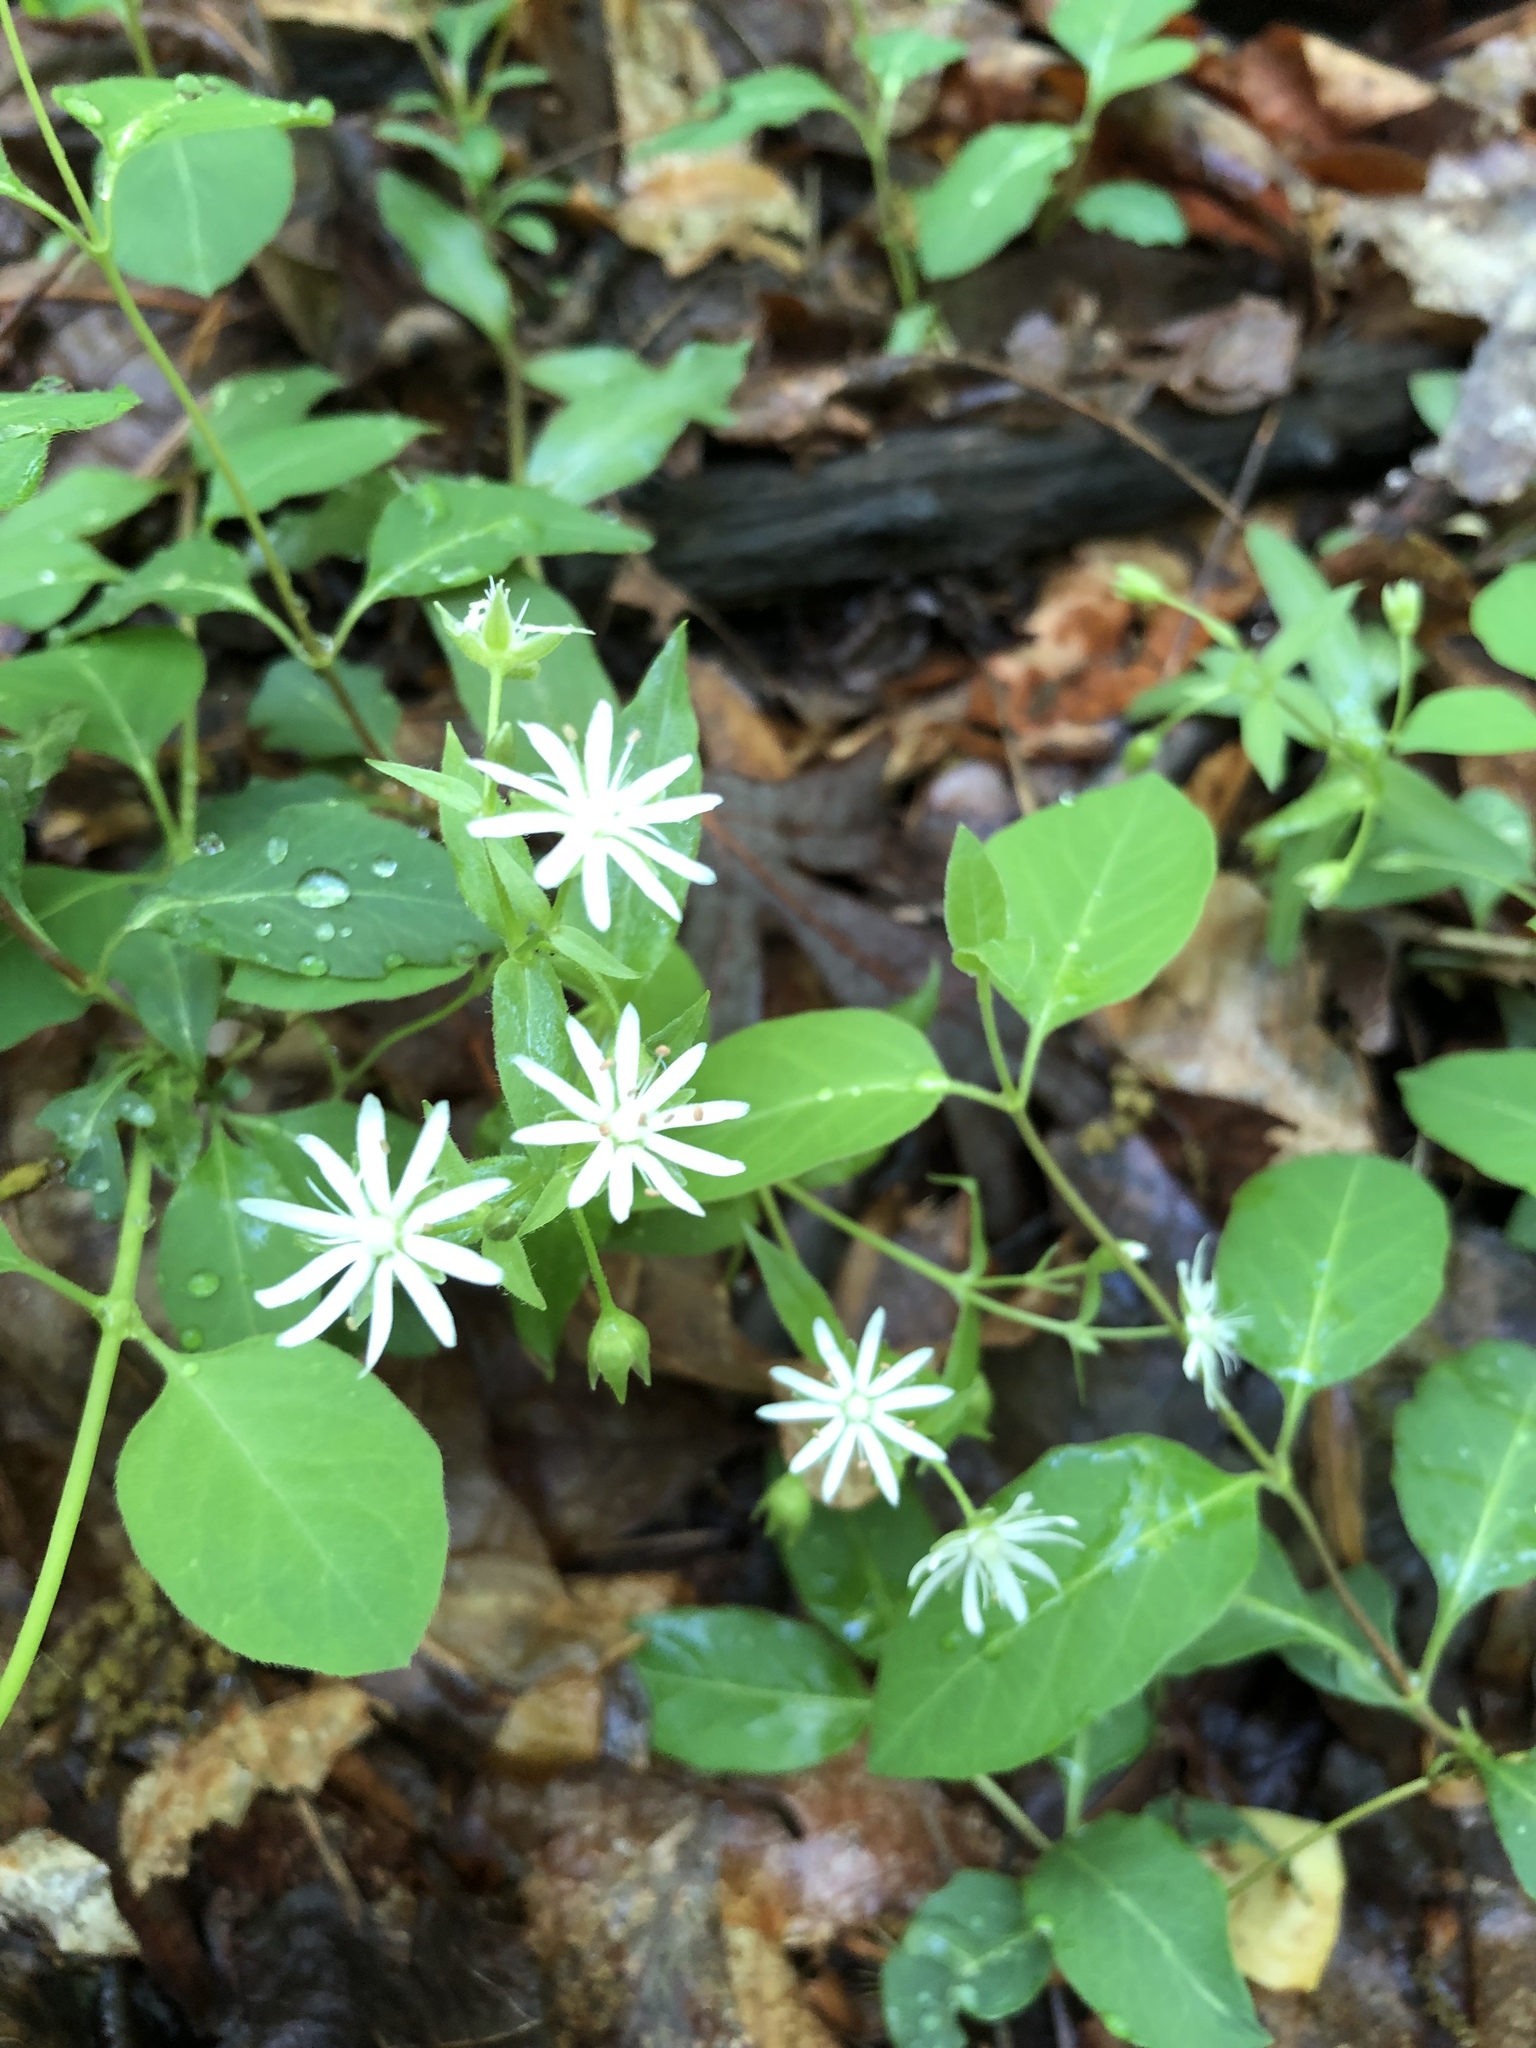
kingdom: Plantae
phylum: Tracheophyta
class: Magnoliopsida
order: Caryophyllales
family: Caryophyllaceae
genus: Stellaria
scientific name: Stellaria pubera
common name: Star chickweed
